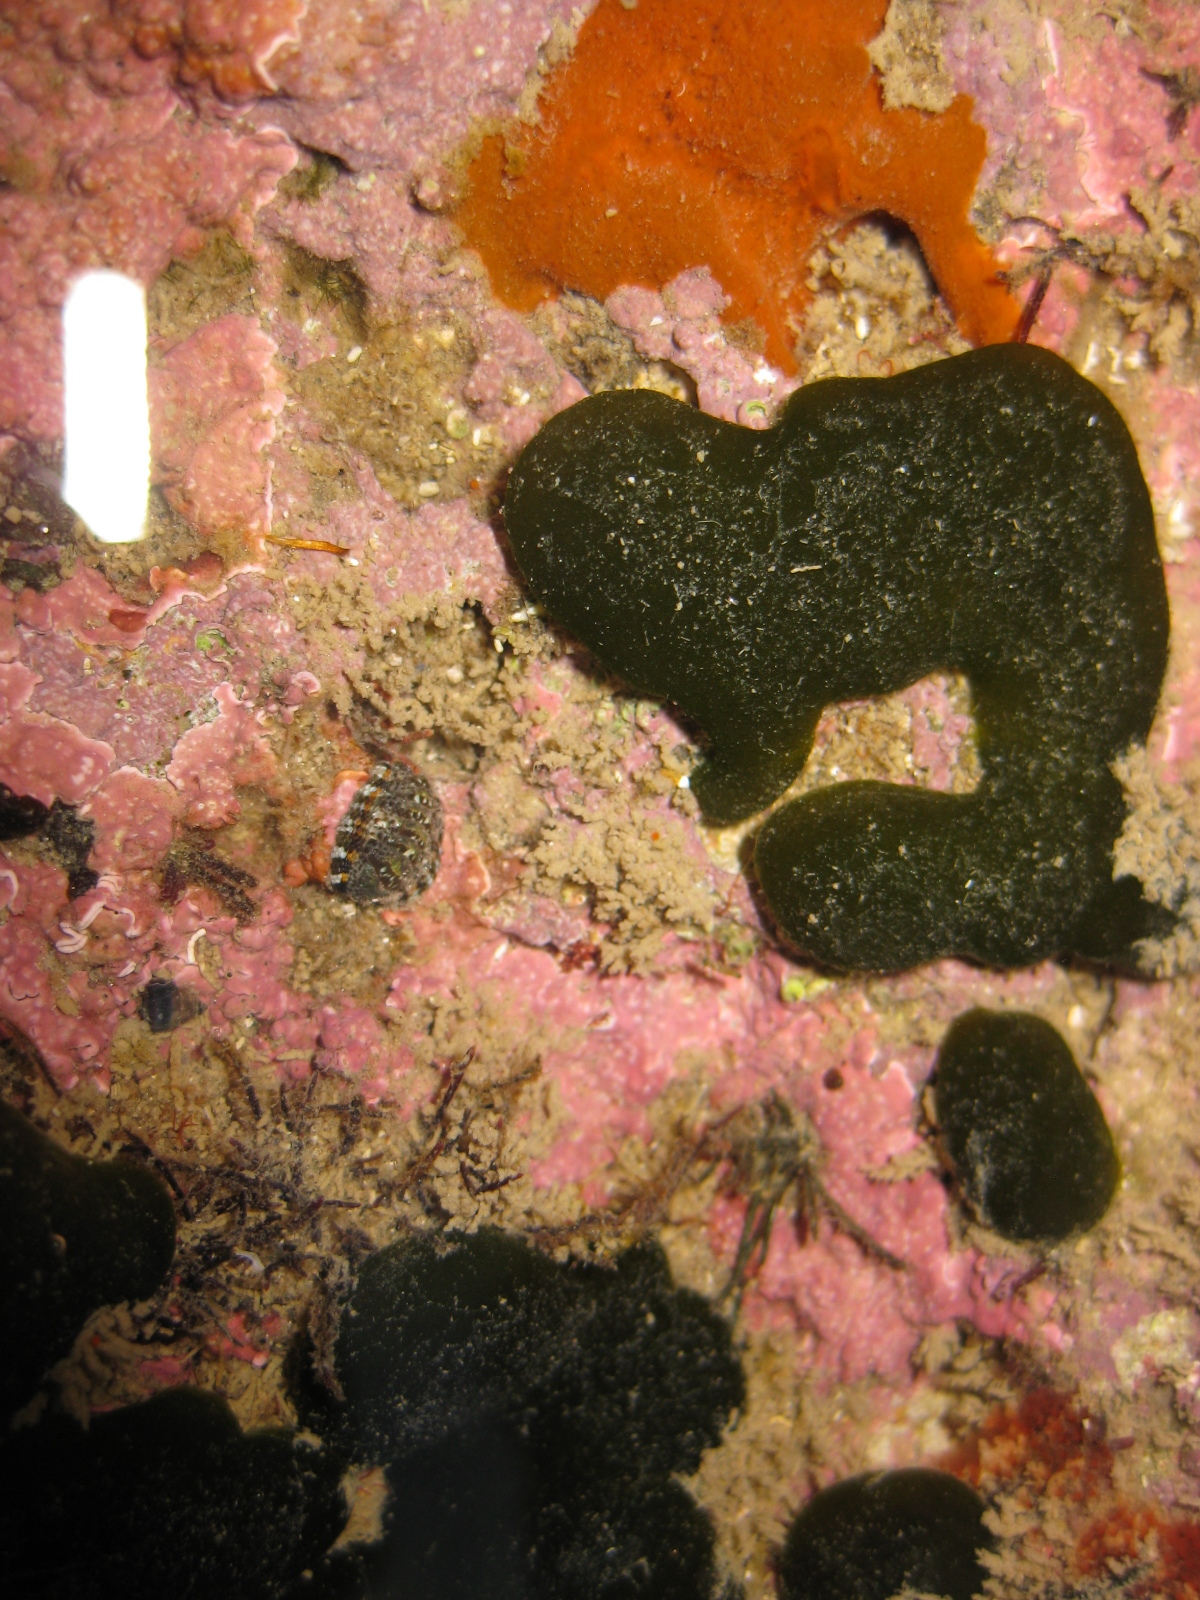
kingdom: Animalia
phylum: Mollusca
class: Polyplacophora
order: Chitonida
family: Chitonidae
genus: Sypharochiton
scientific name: Sypharochiton sinclairi
